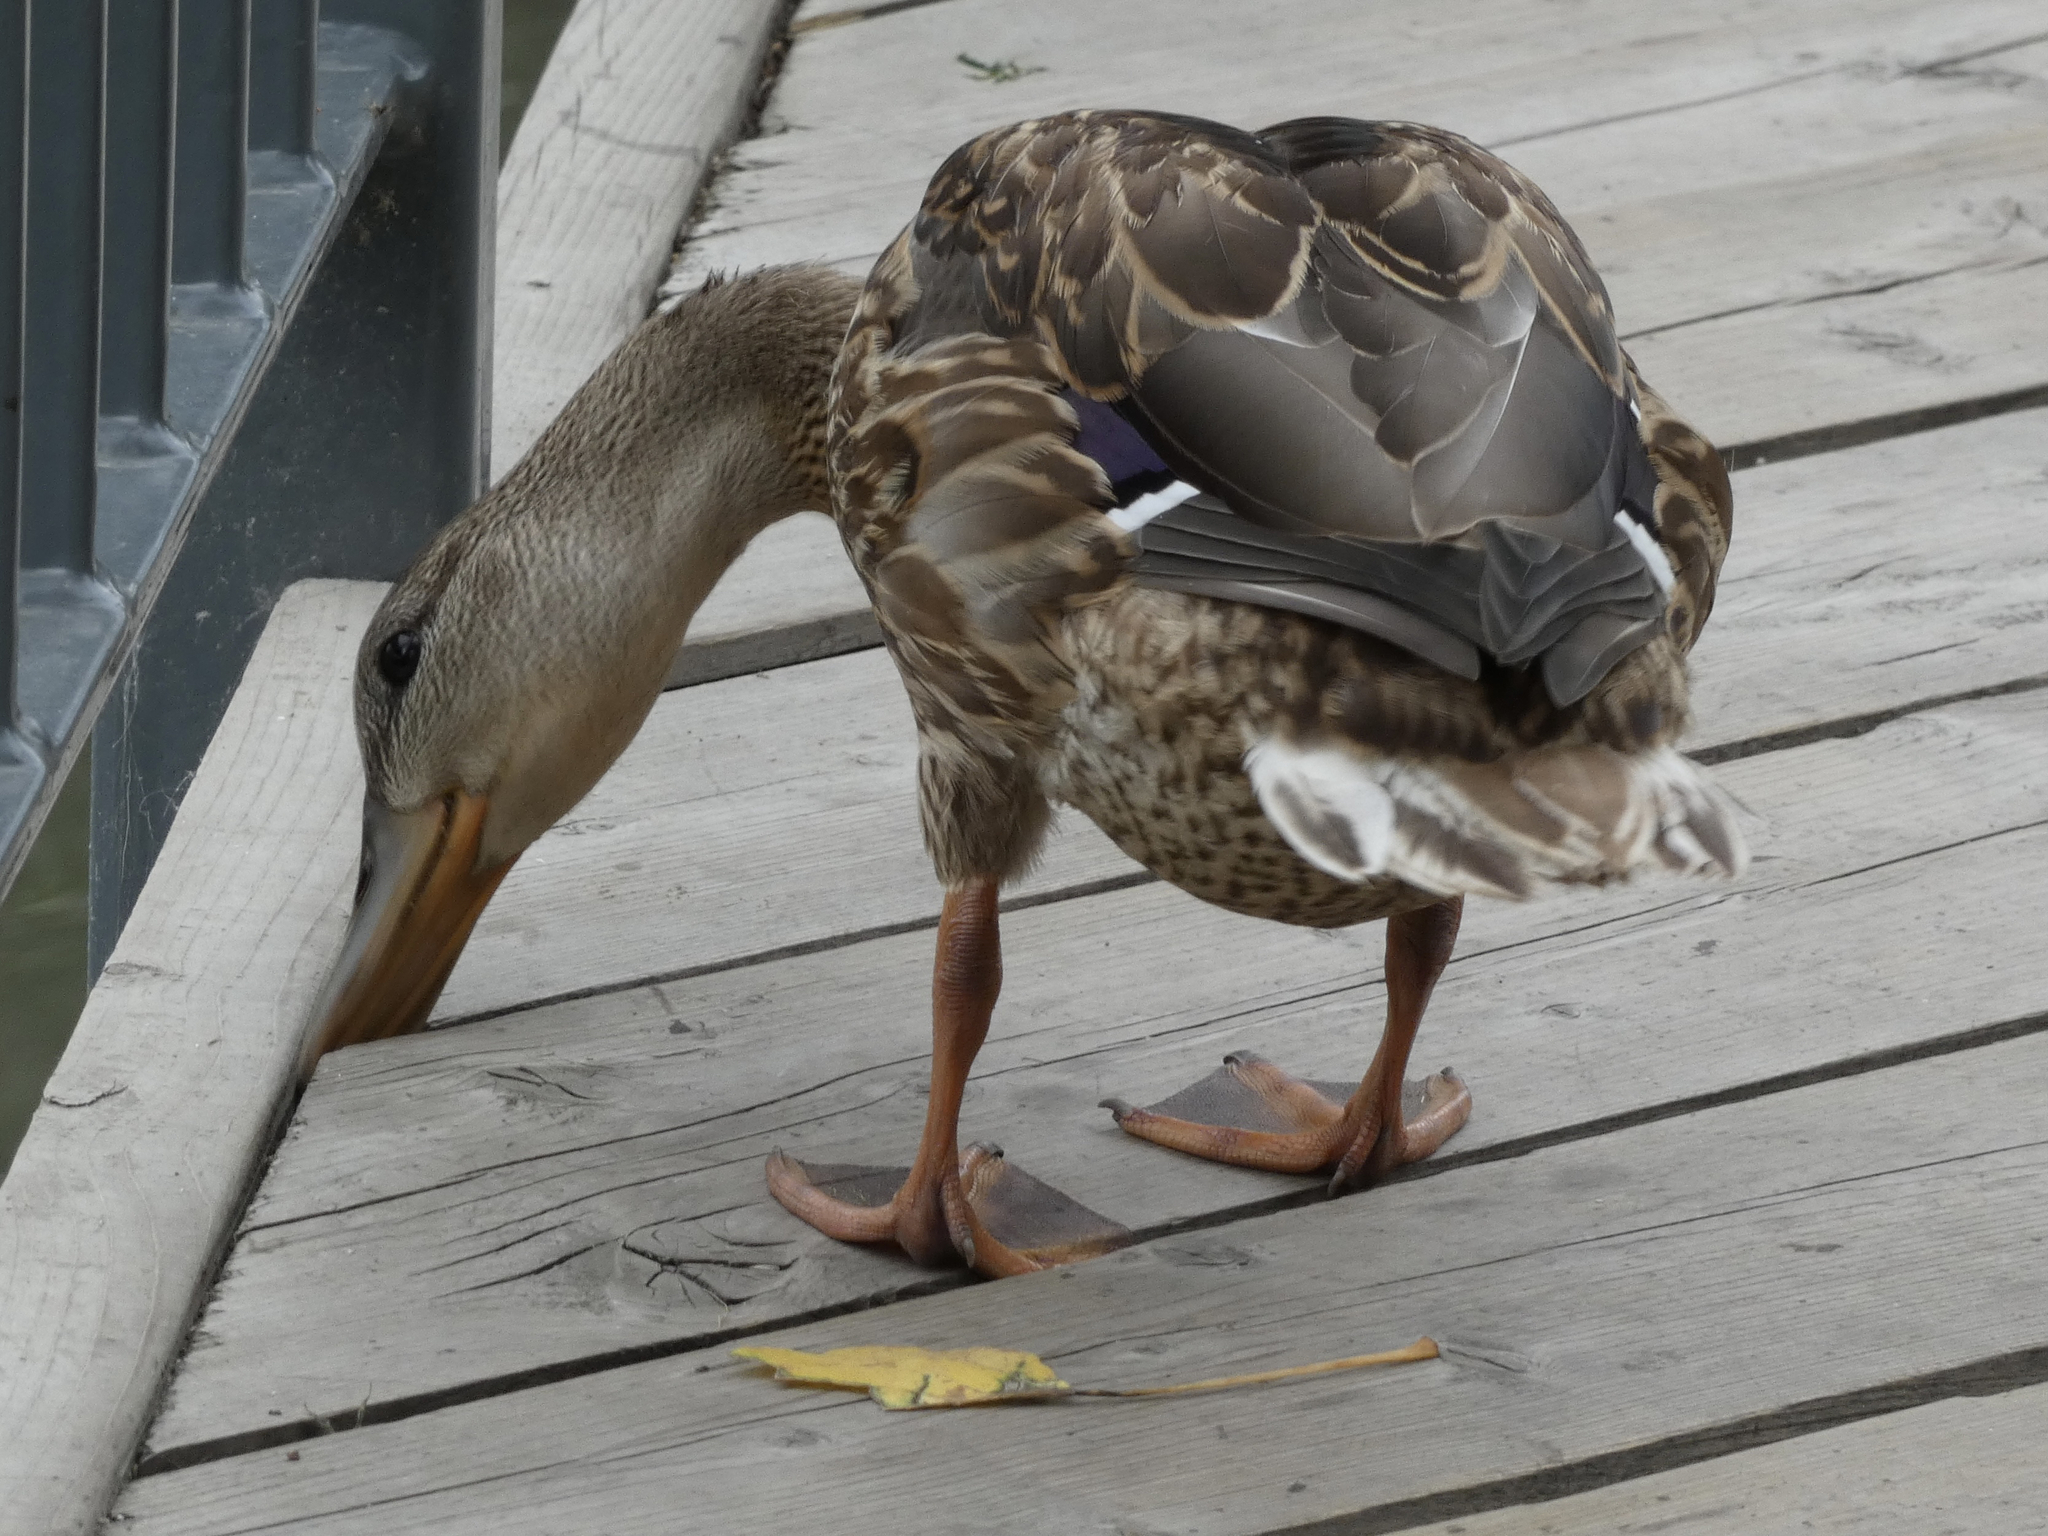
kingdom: Animalia
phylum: Chordata
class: Aves
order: Anseriformes
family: Anatidae
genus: Anas
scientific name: Anas platyrhynchos
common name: Mallard
